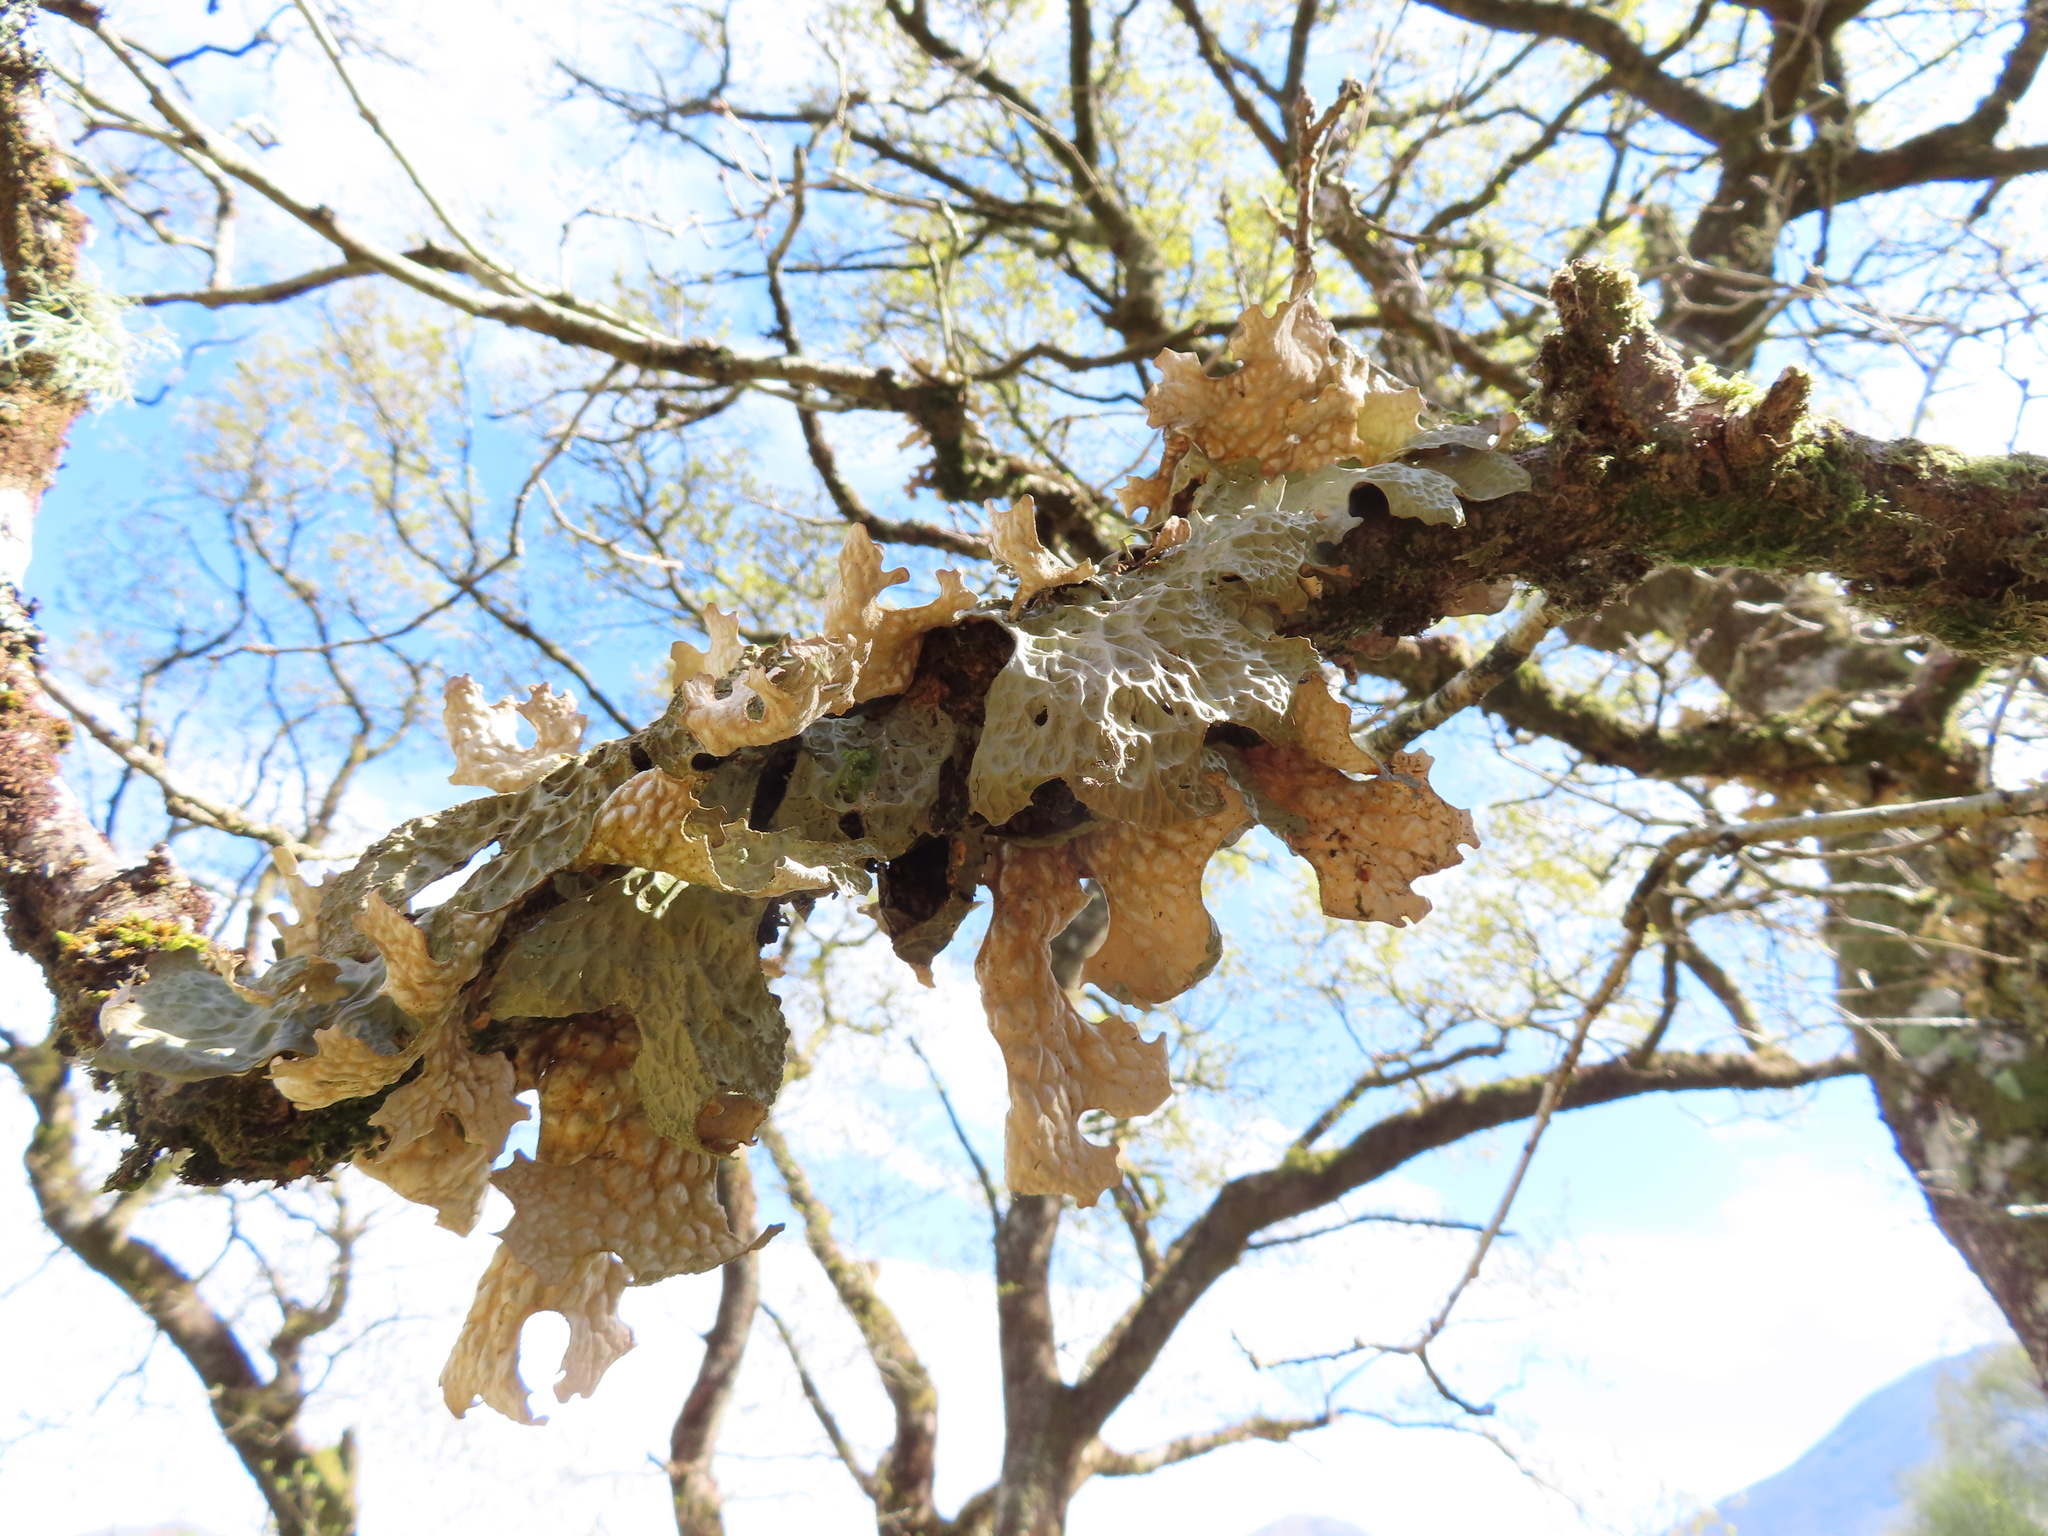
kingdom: Fungi
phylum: Ascomycota
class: Lecanoromycetes
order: Peltigerales
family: Lobariaceae
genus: Lobaria
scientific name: Lobaria pulmonaria
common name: Lungwort
